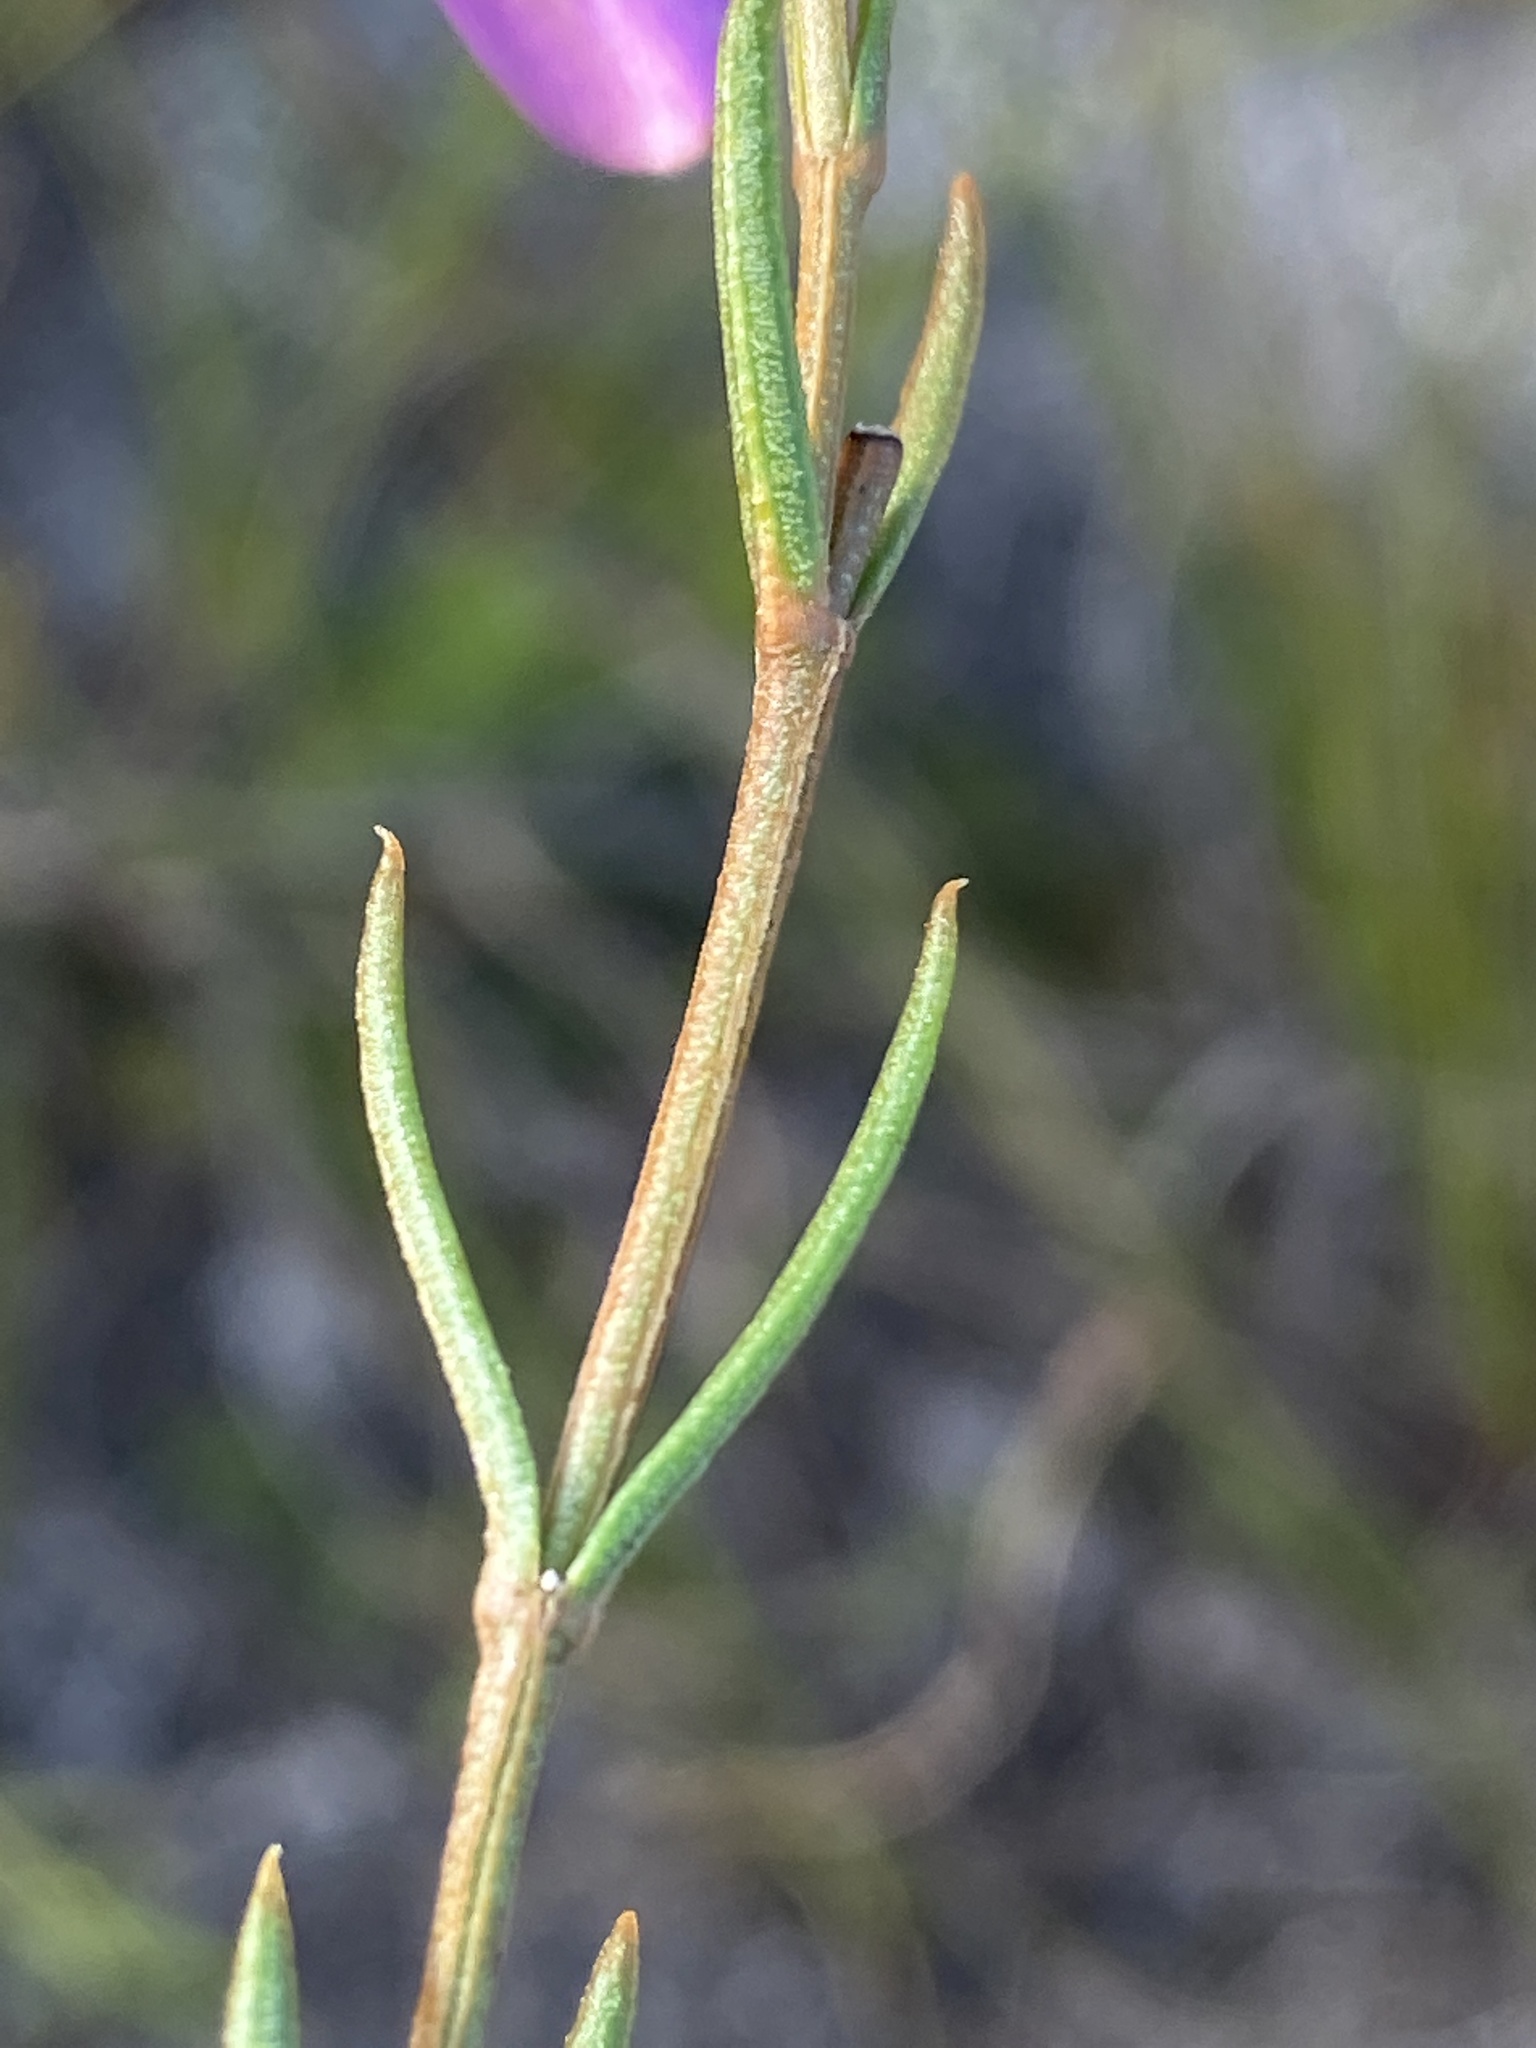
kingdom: Plantae
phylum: Tracheophyta
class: Magnoliopsida
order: Gentianales
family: Gentianaceae
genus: Chironia
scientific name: Chironia tetragona
